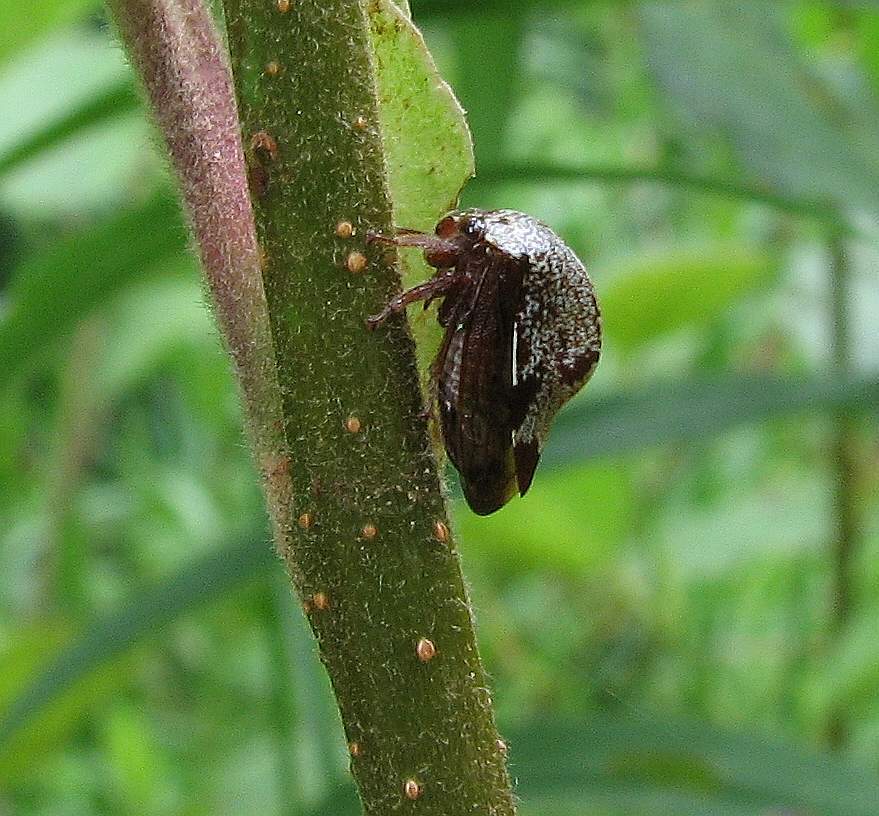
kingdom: Animalia
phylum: Arthropoda
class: Insecta
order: Hemiptera
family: Membracidae
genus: Carynota
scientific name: Carynota marmorata
